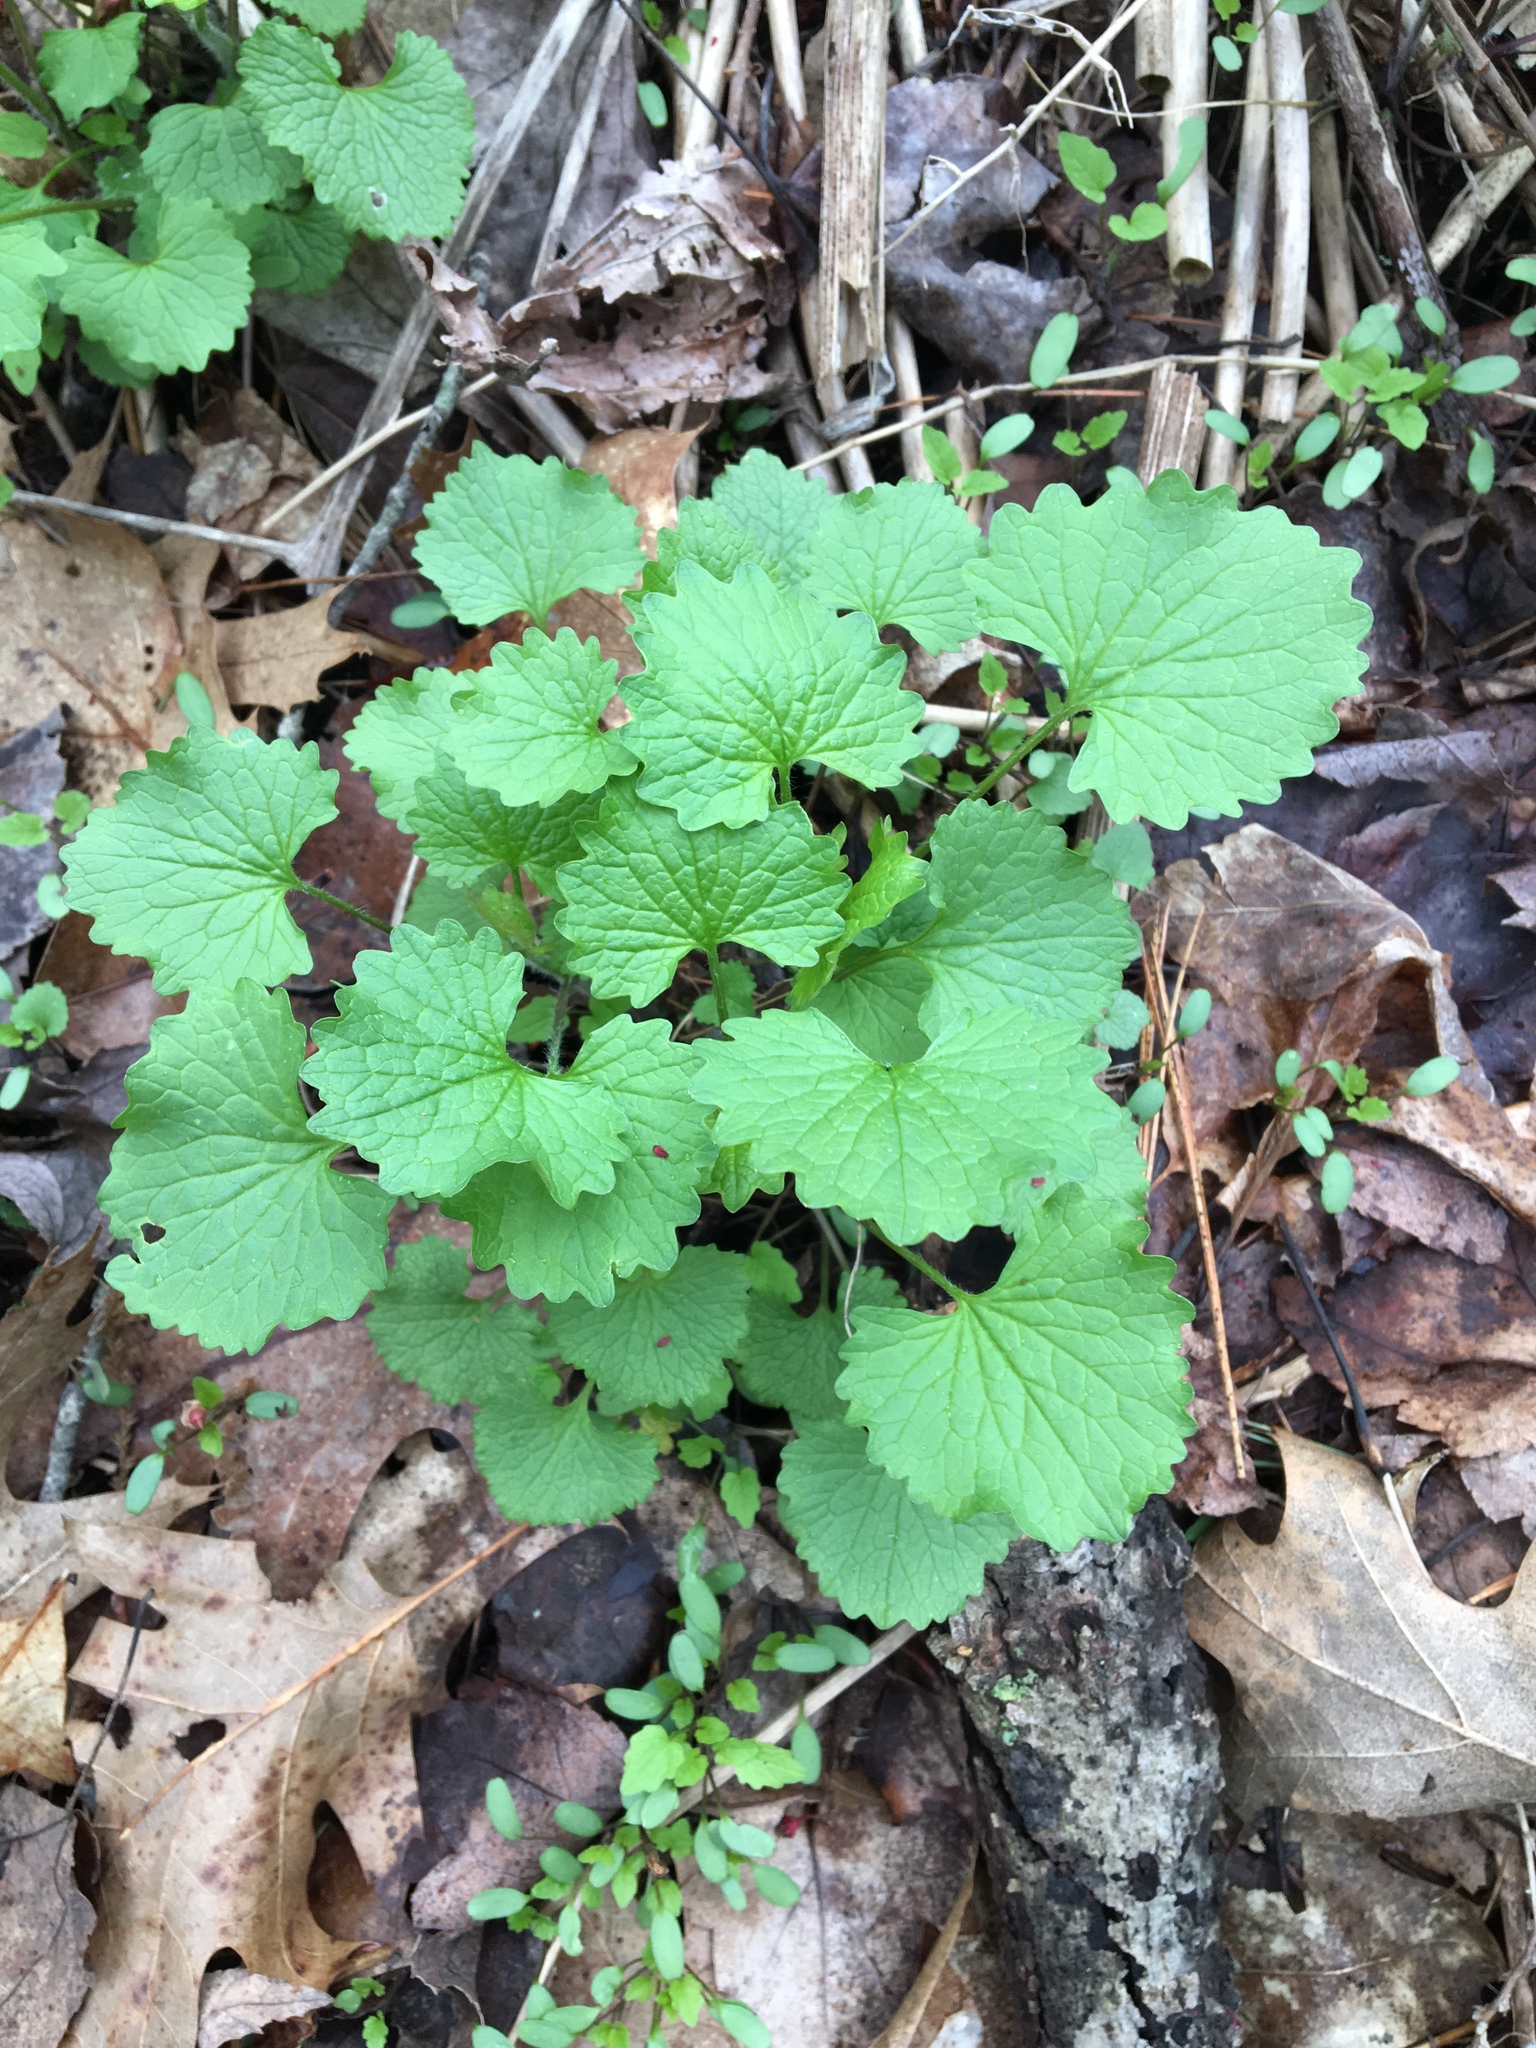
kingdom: Plantae
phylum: Tracheophyta
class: Magnoliopsida
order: Brassicales
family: Brassicaceae
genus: Alliaria
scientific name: Alliaria petiolata
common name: Garlic mustard
